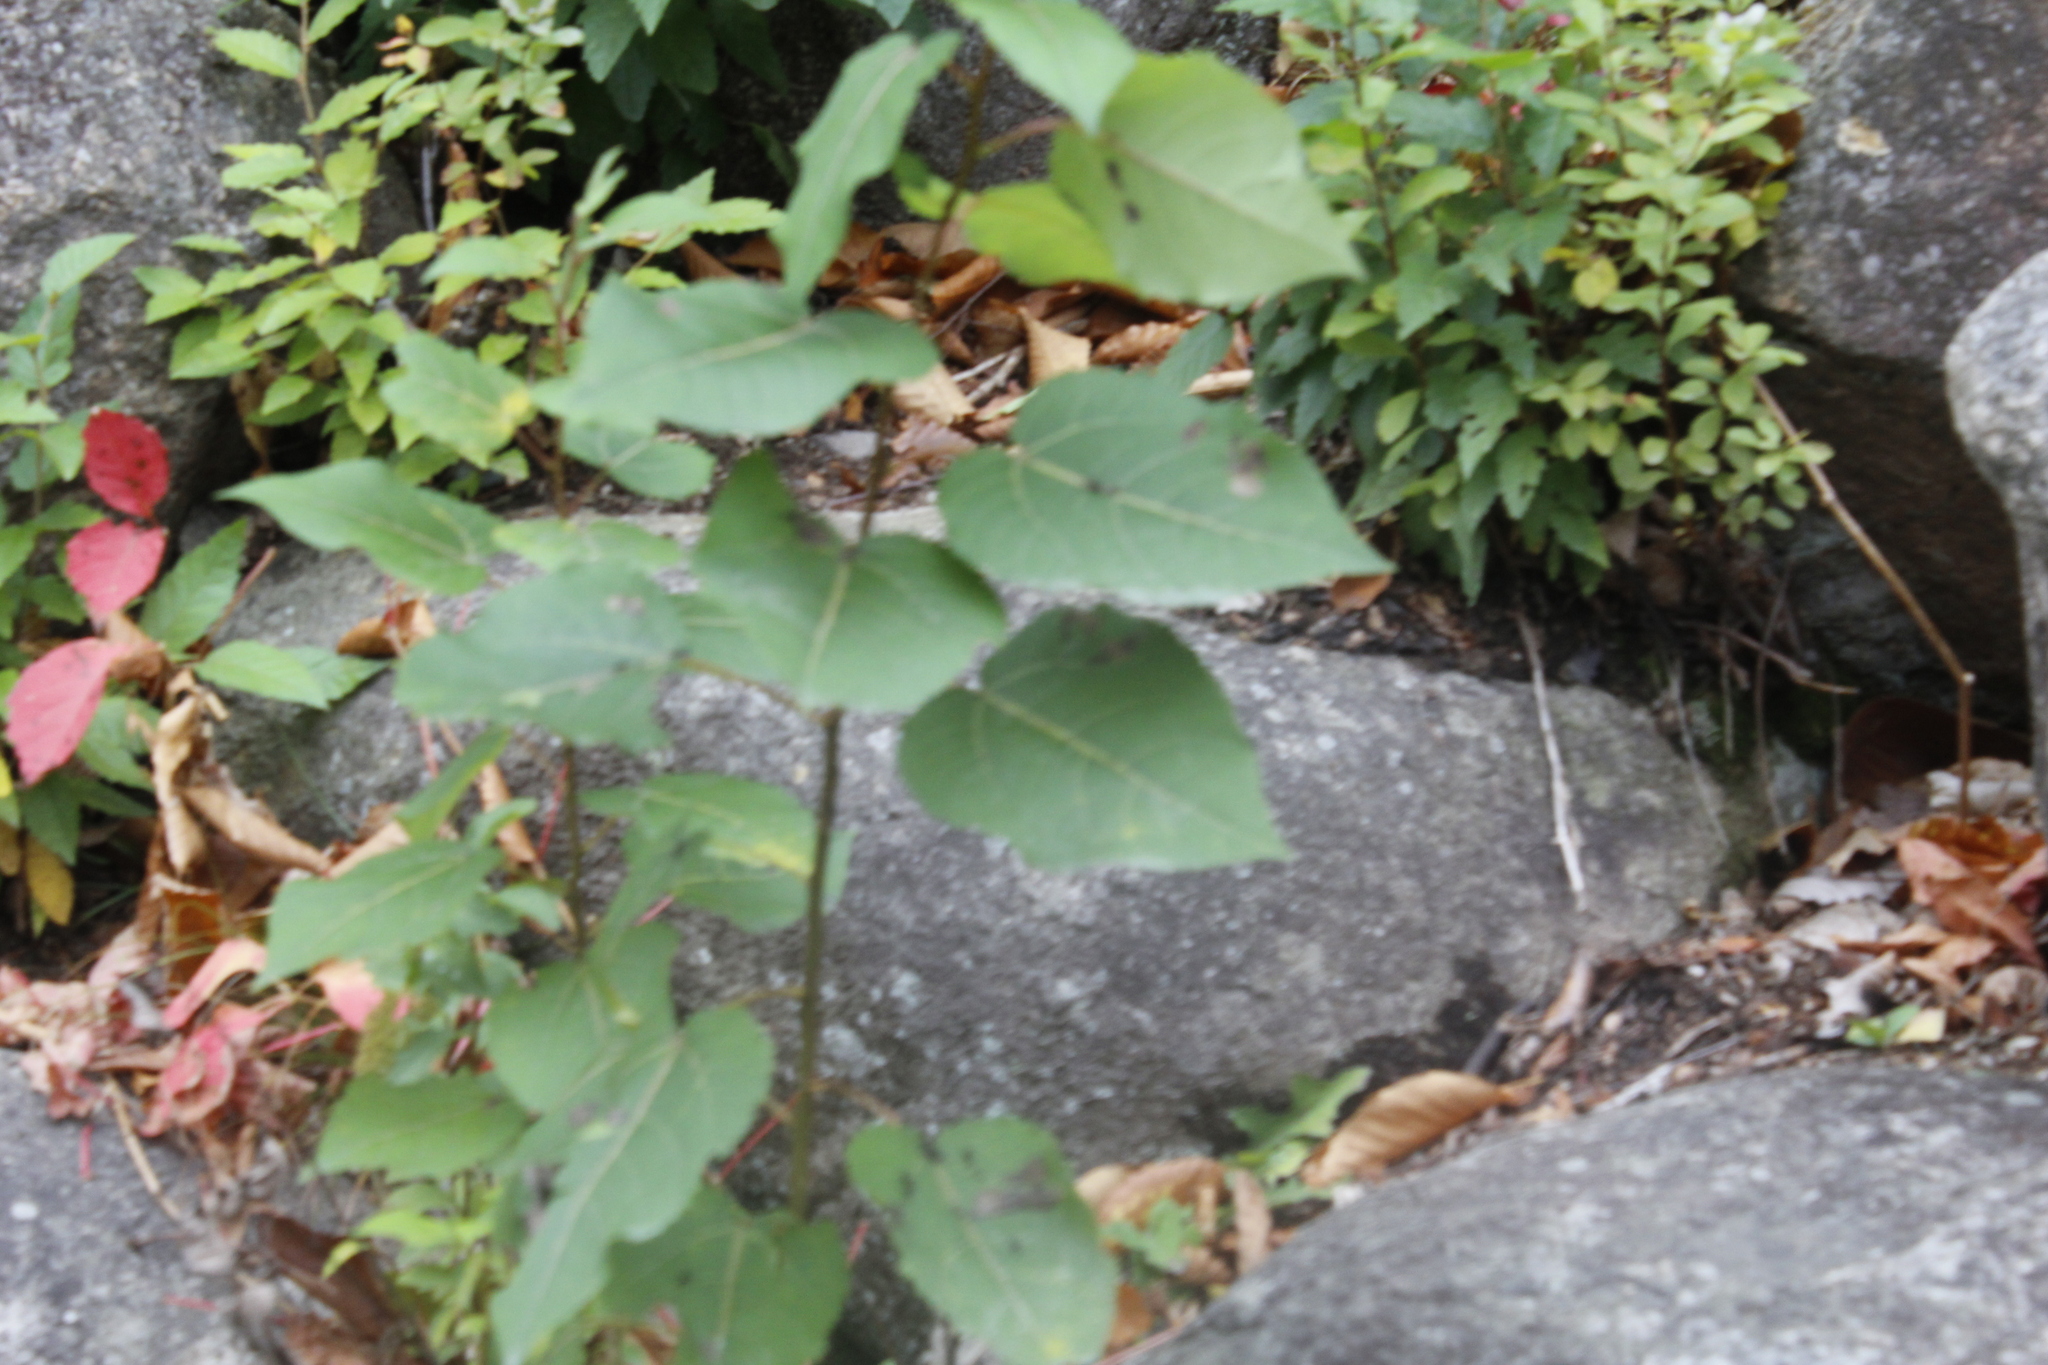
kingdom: Plantae
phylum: Tracheophyta
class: Magnoliopsida
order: Malpighiales
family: Salicaceae
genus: Populus
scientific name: Populus grandidentata
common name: Bigtooth aspen
